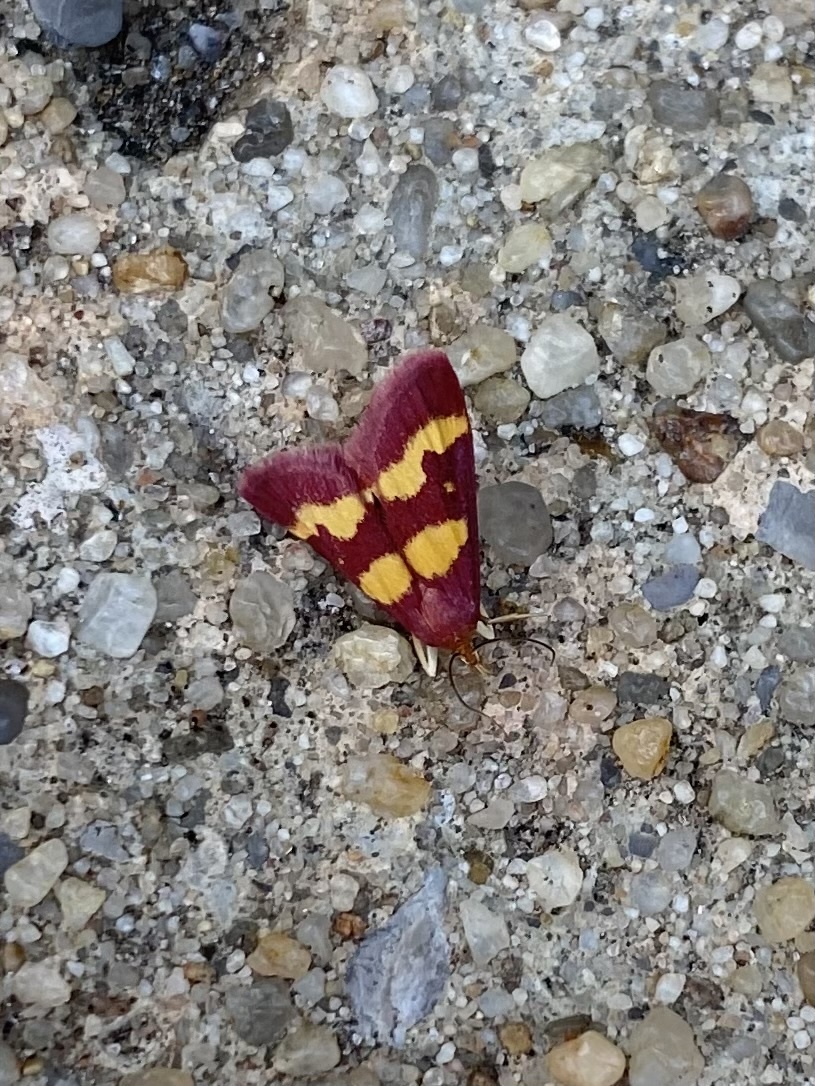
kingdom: Animalia
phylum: Arthropoda
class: Insecta
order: Lepidoptera
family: Crambidae
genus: Pyrausta
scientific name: Pyrausta tyralis
